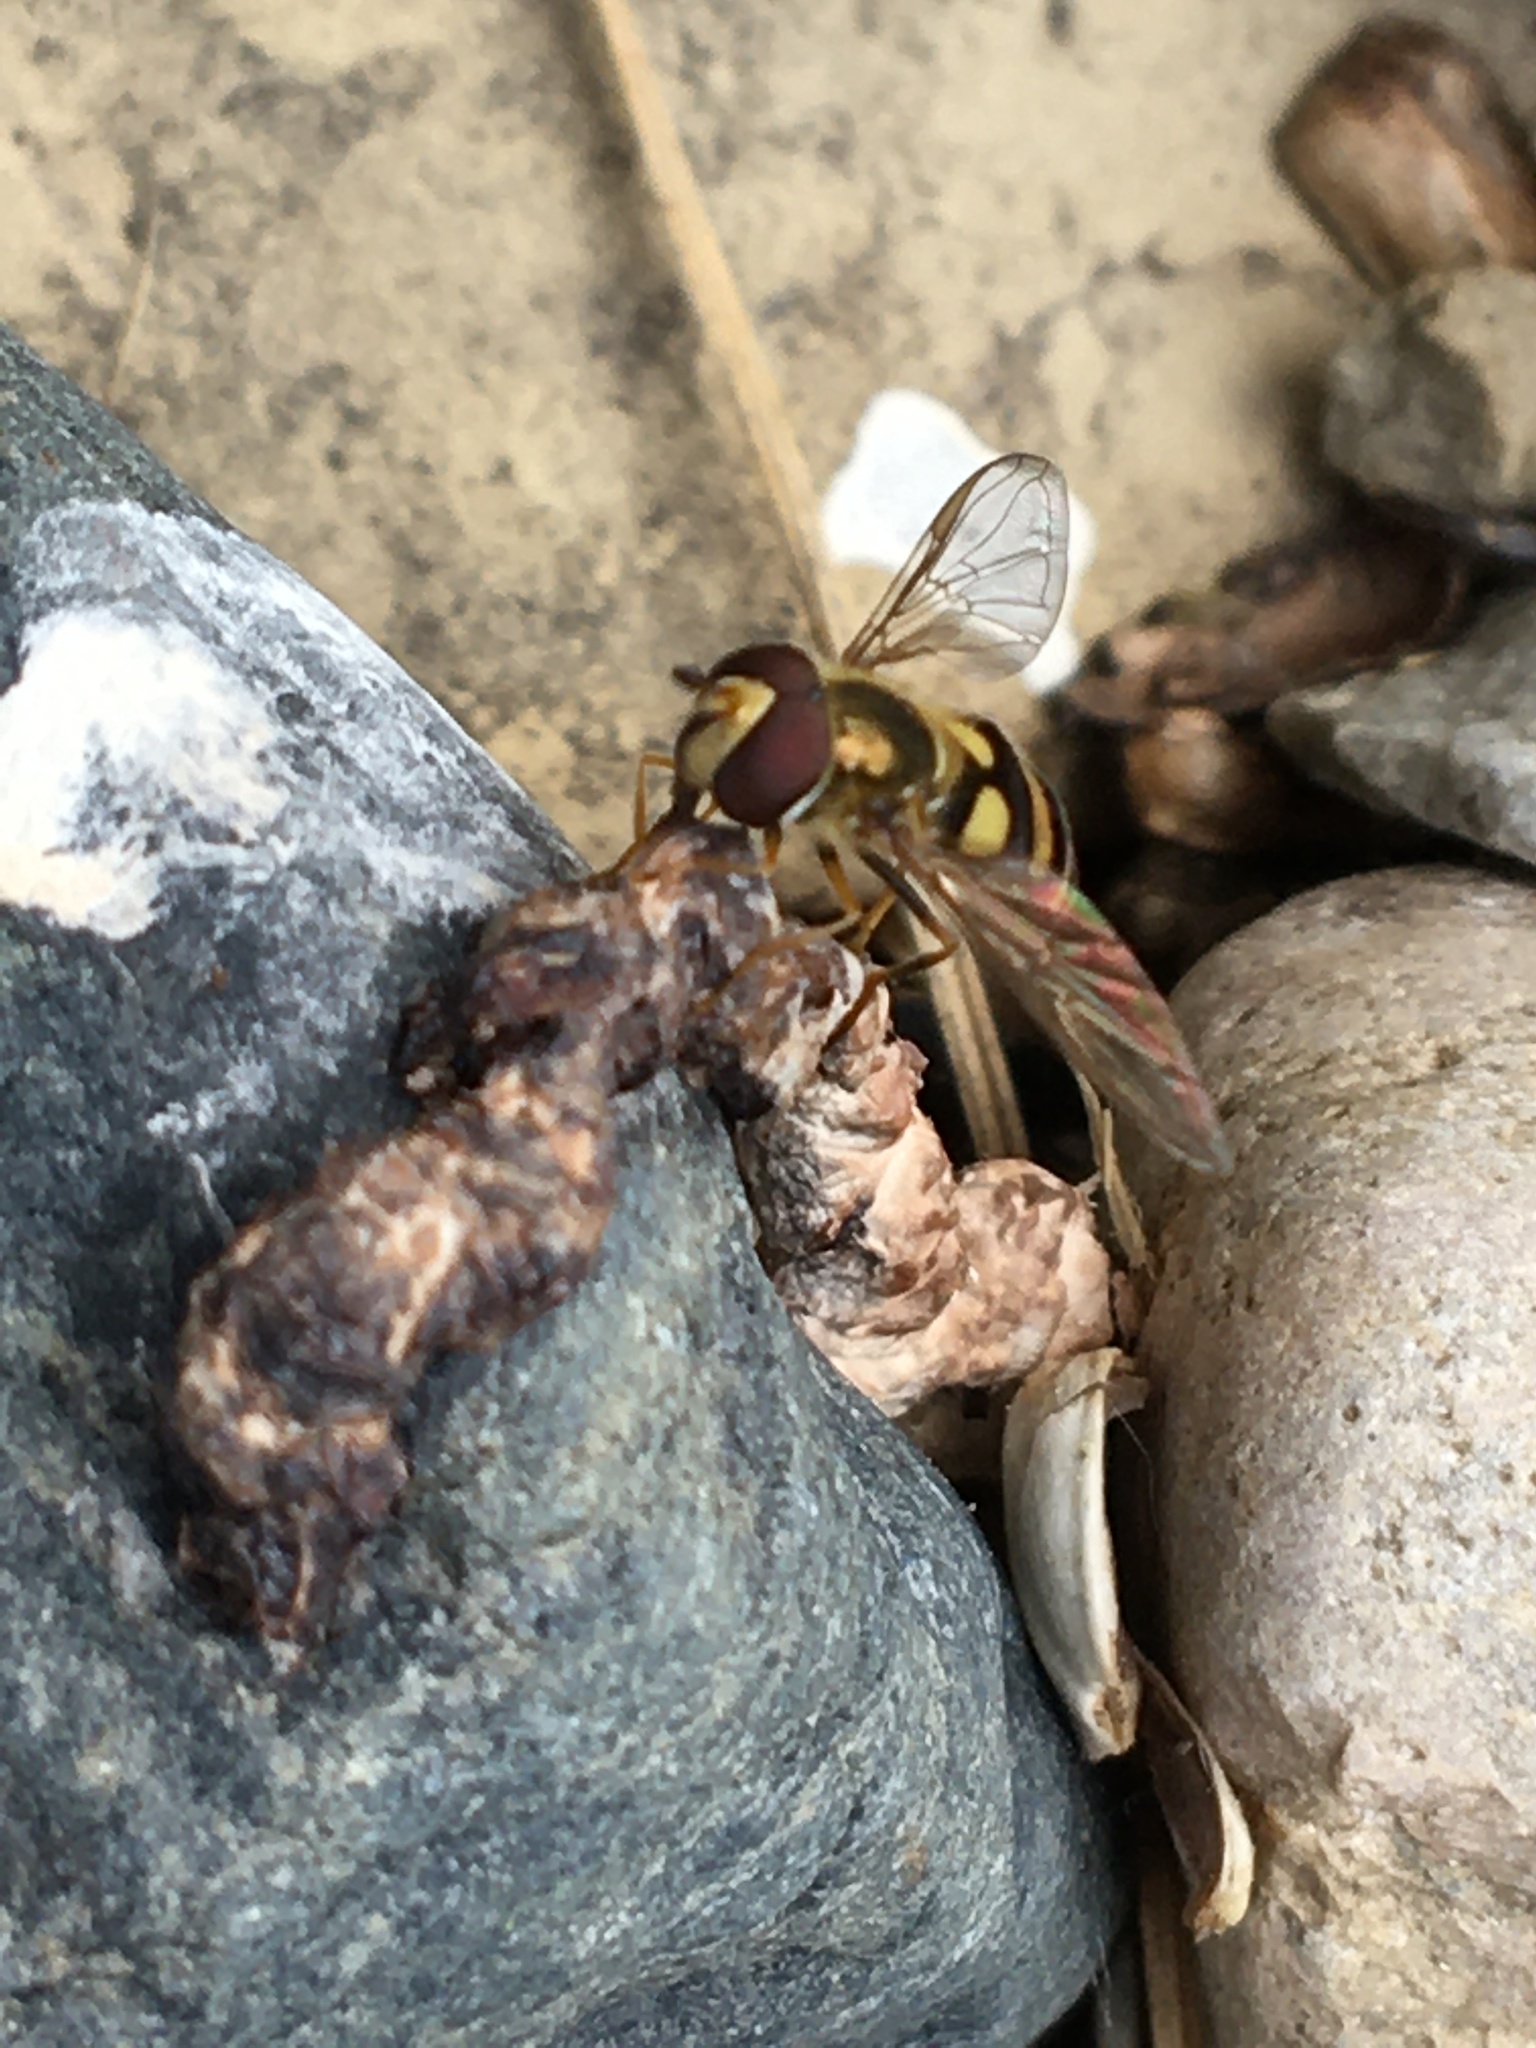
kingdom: Animalia
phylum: Arthropoda
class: Insecta
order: Diptera
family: Syrphidae
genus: Eupeodes
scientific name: Eupeodes
